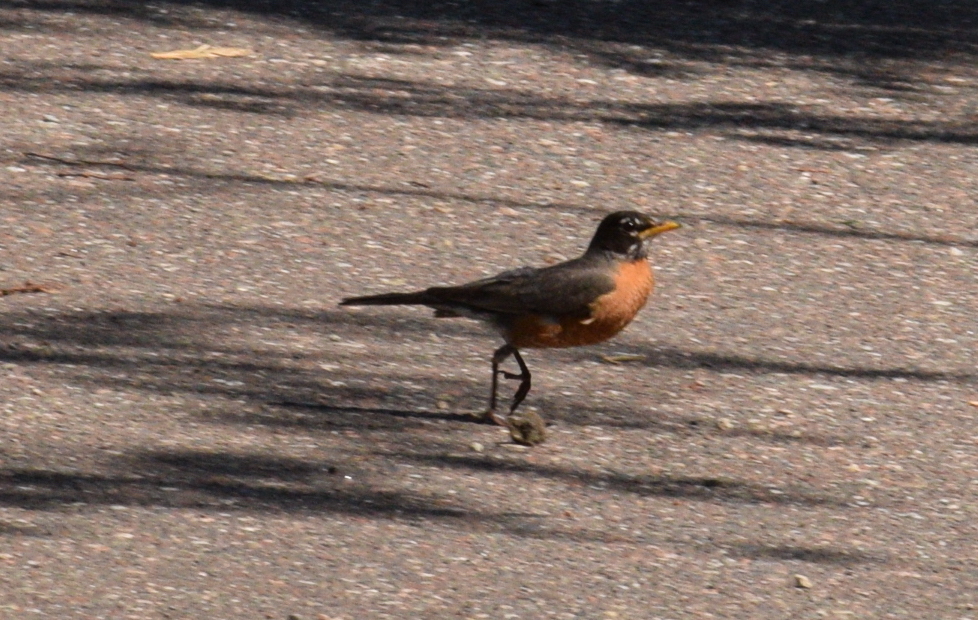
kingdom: Animalia
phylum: Chordata
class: Aves
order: Passeriformes
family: Turdidae
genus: Turdus
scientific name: Turdus migratorius
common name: American robin
